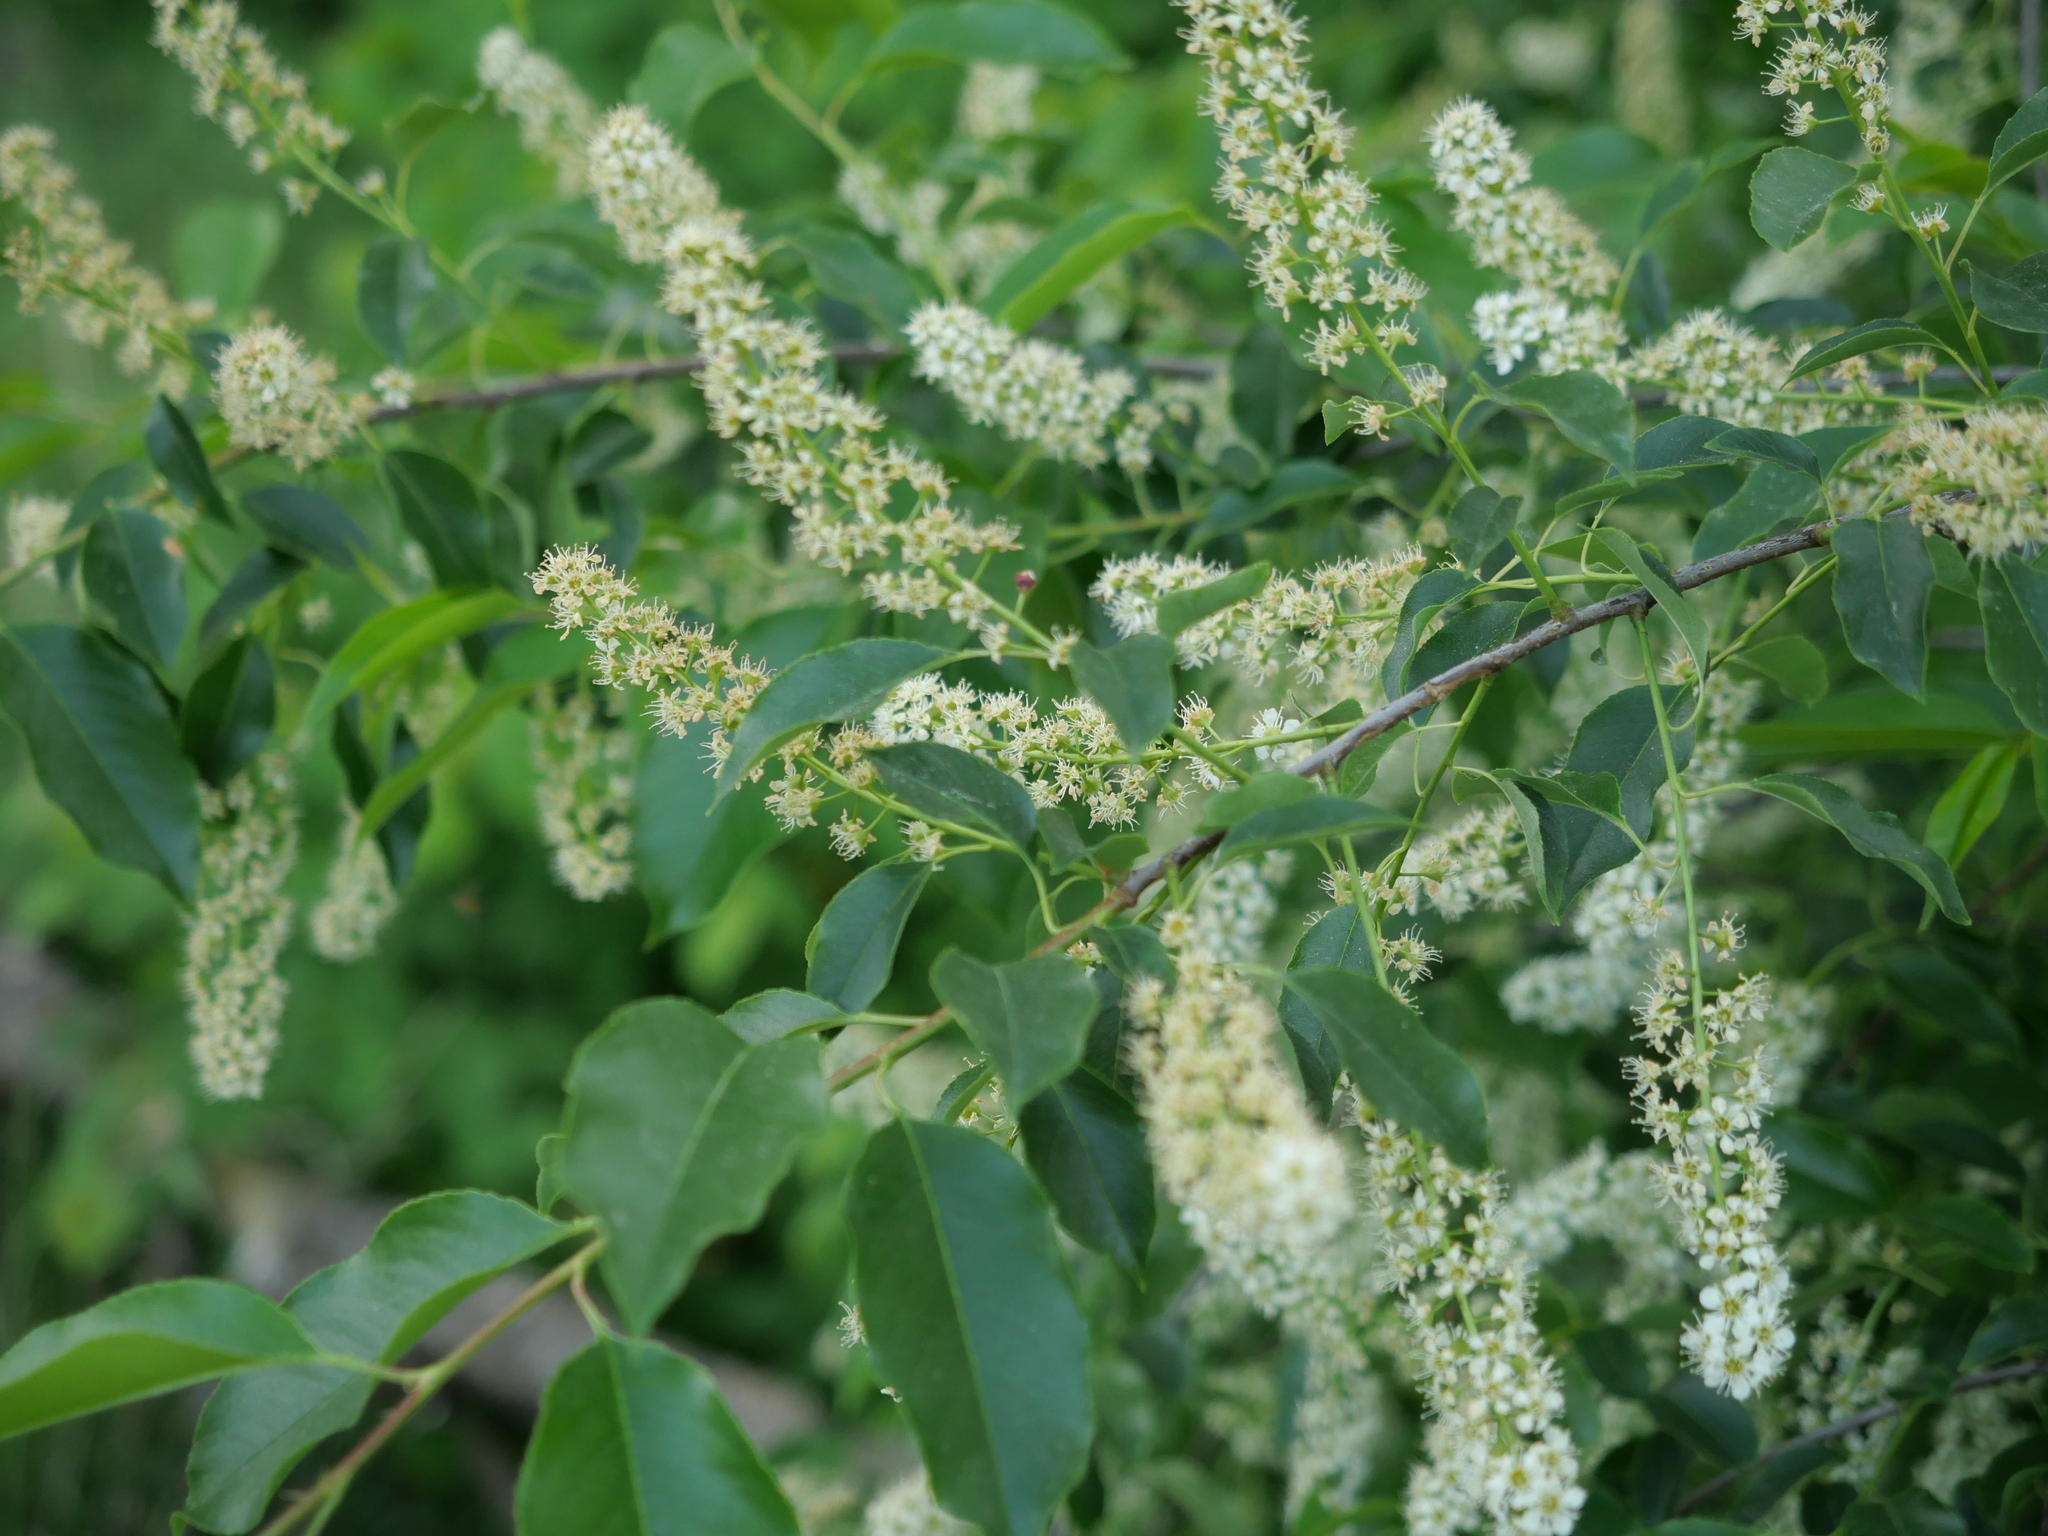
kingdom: Plantae
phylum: Tracheophyta
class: Magnoliopsida
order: Rosales
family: Rosaceae
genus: Prunus
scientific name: Prunus serotina
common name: Black cherry
